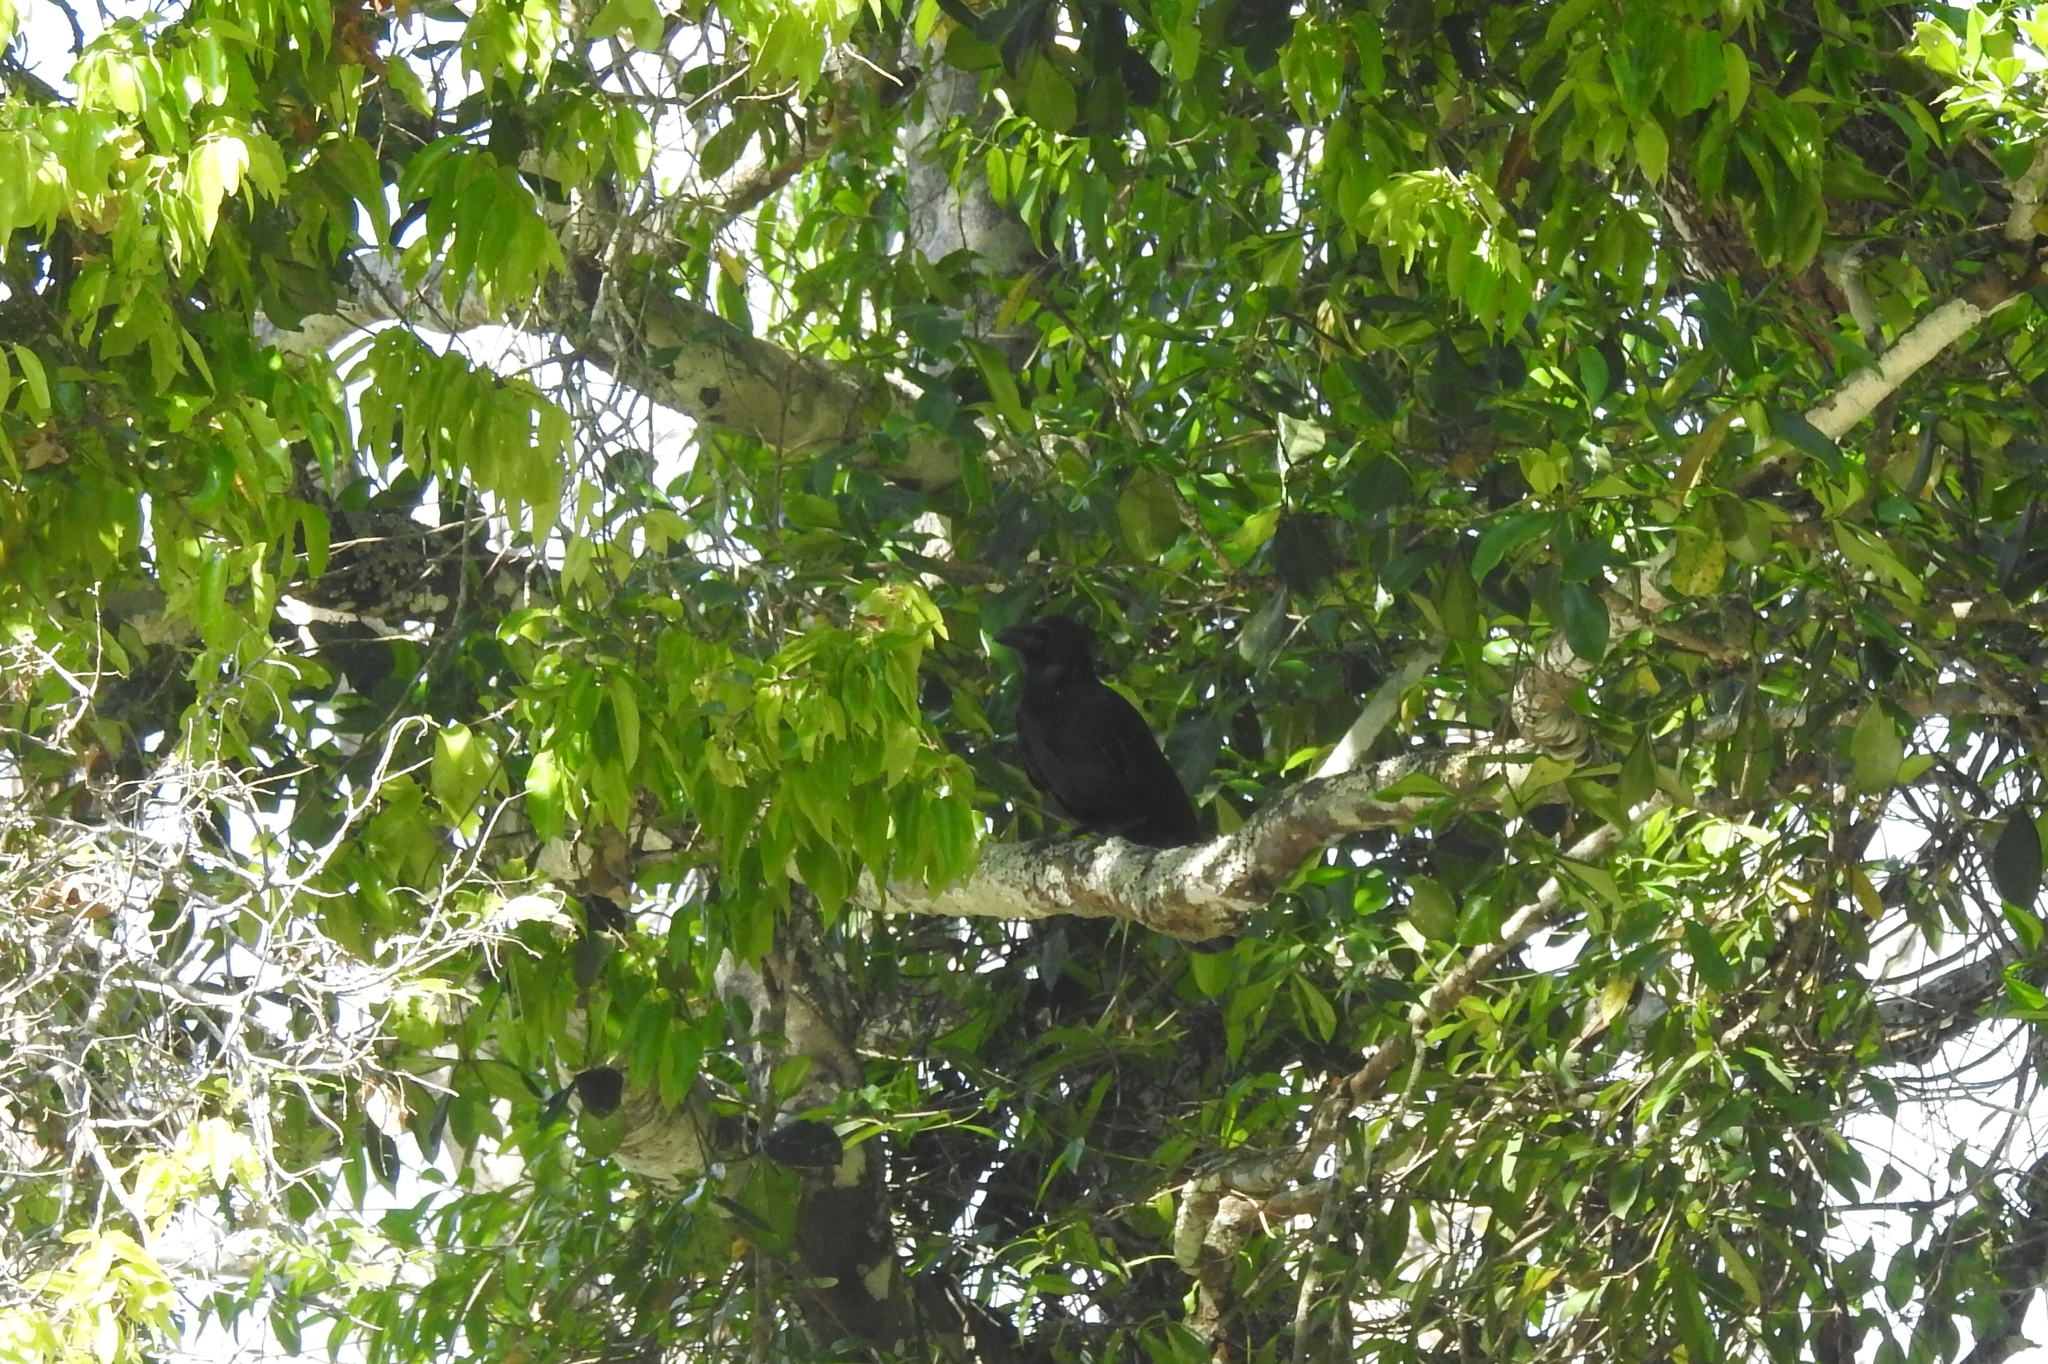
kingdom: Animalia
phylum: Chordata
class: Aves
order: Passeriformes
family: Corvidae
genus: Corvus
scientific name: Corvus macrorhynchos
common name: Large-billed crow
